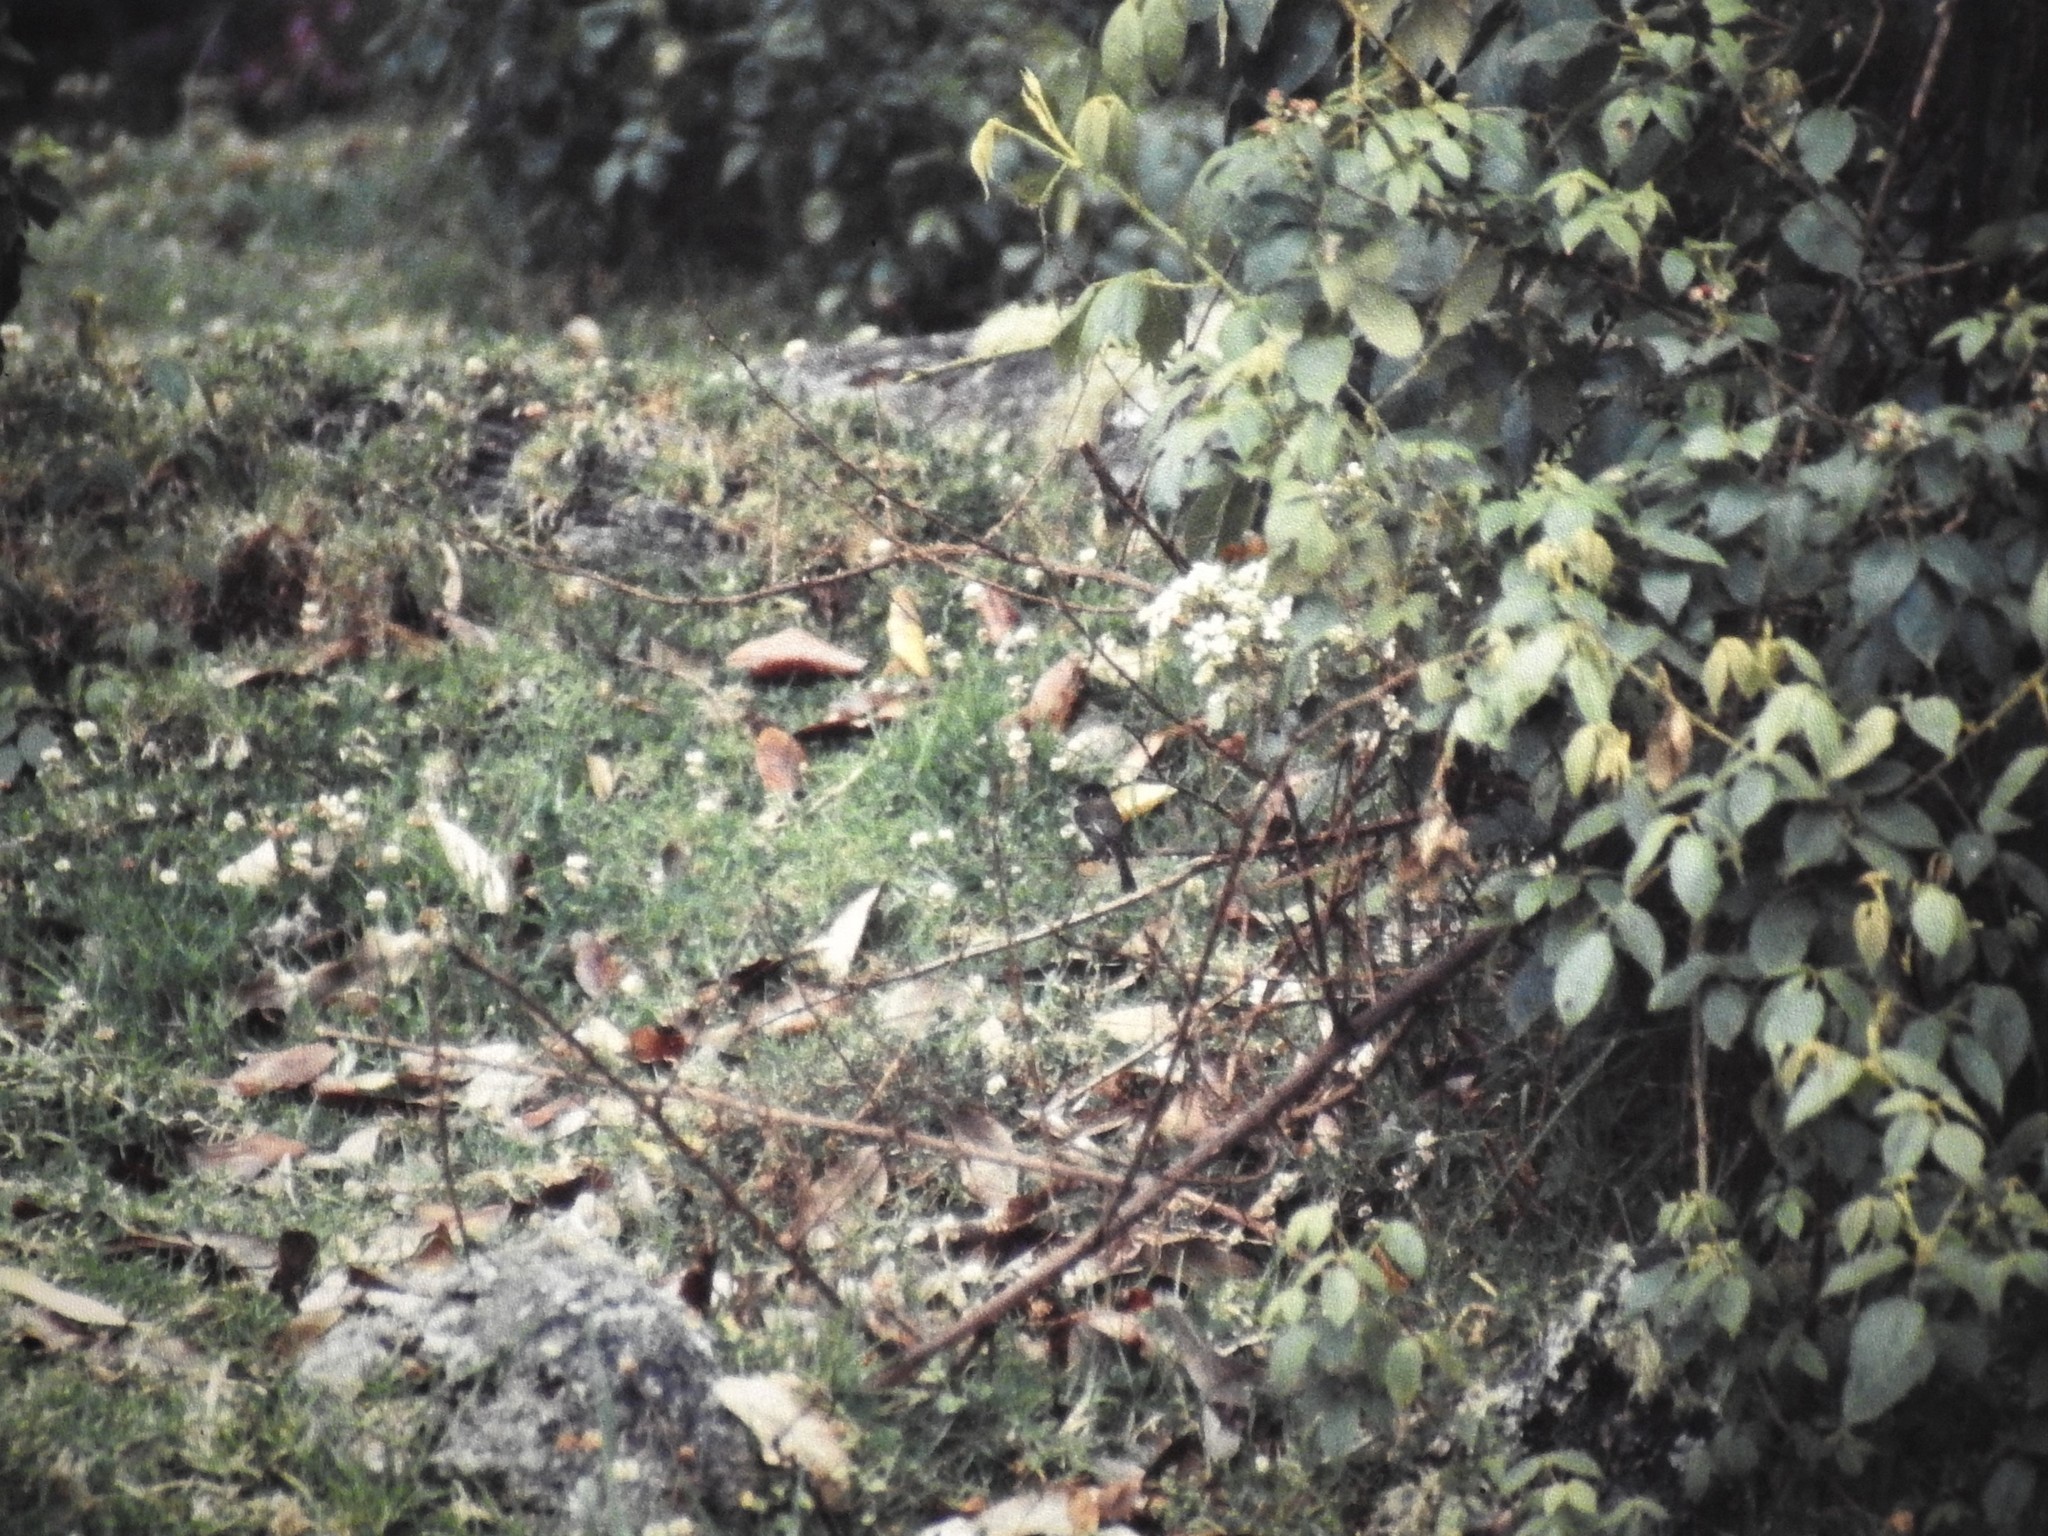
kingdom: Animalia
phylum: Chordata
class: Aves
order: Passeriformes
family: Tyrannidae
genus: Empidonax
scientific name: Empidonax atriceps
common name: Black-capped flycatcher
